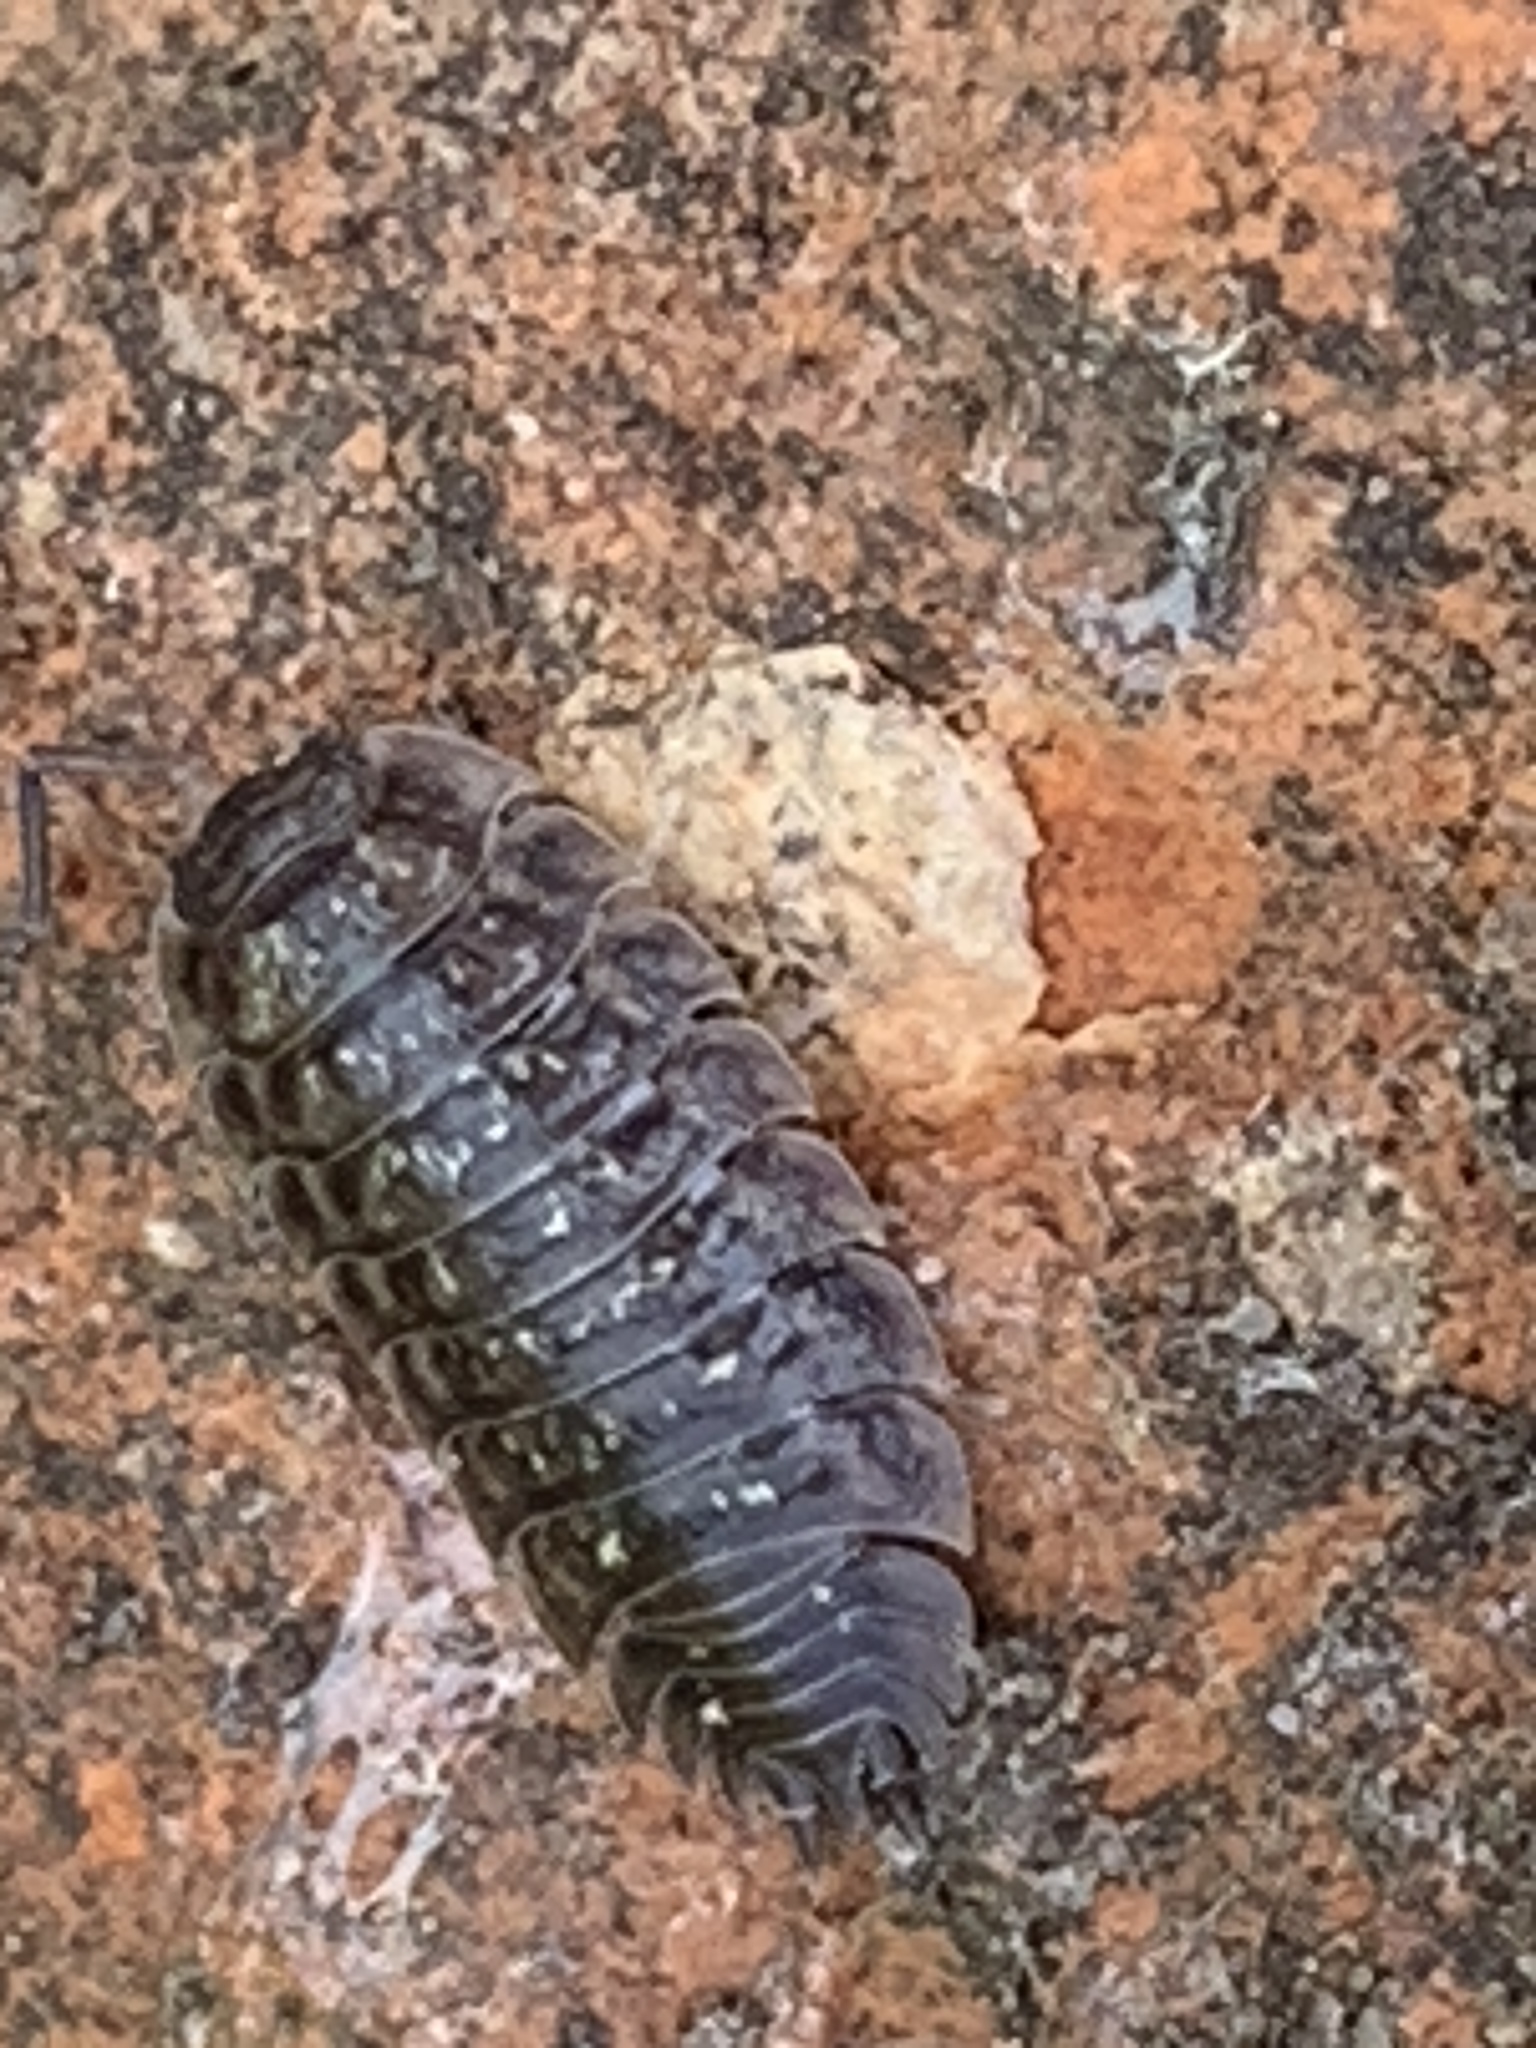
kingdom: Animalia
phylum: Arthropoda
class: Malacostraca
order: Isopoda
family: Oniscidae
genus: Oniscus
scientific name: Oniscus asellus
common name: Common shiny woodlouse
